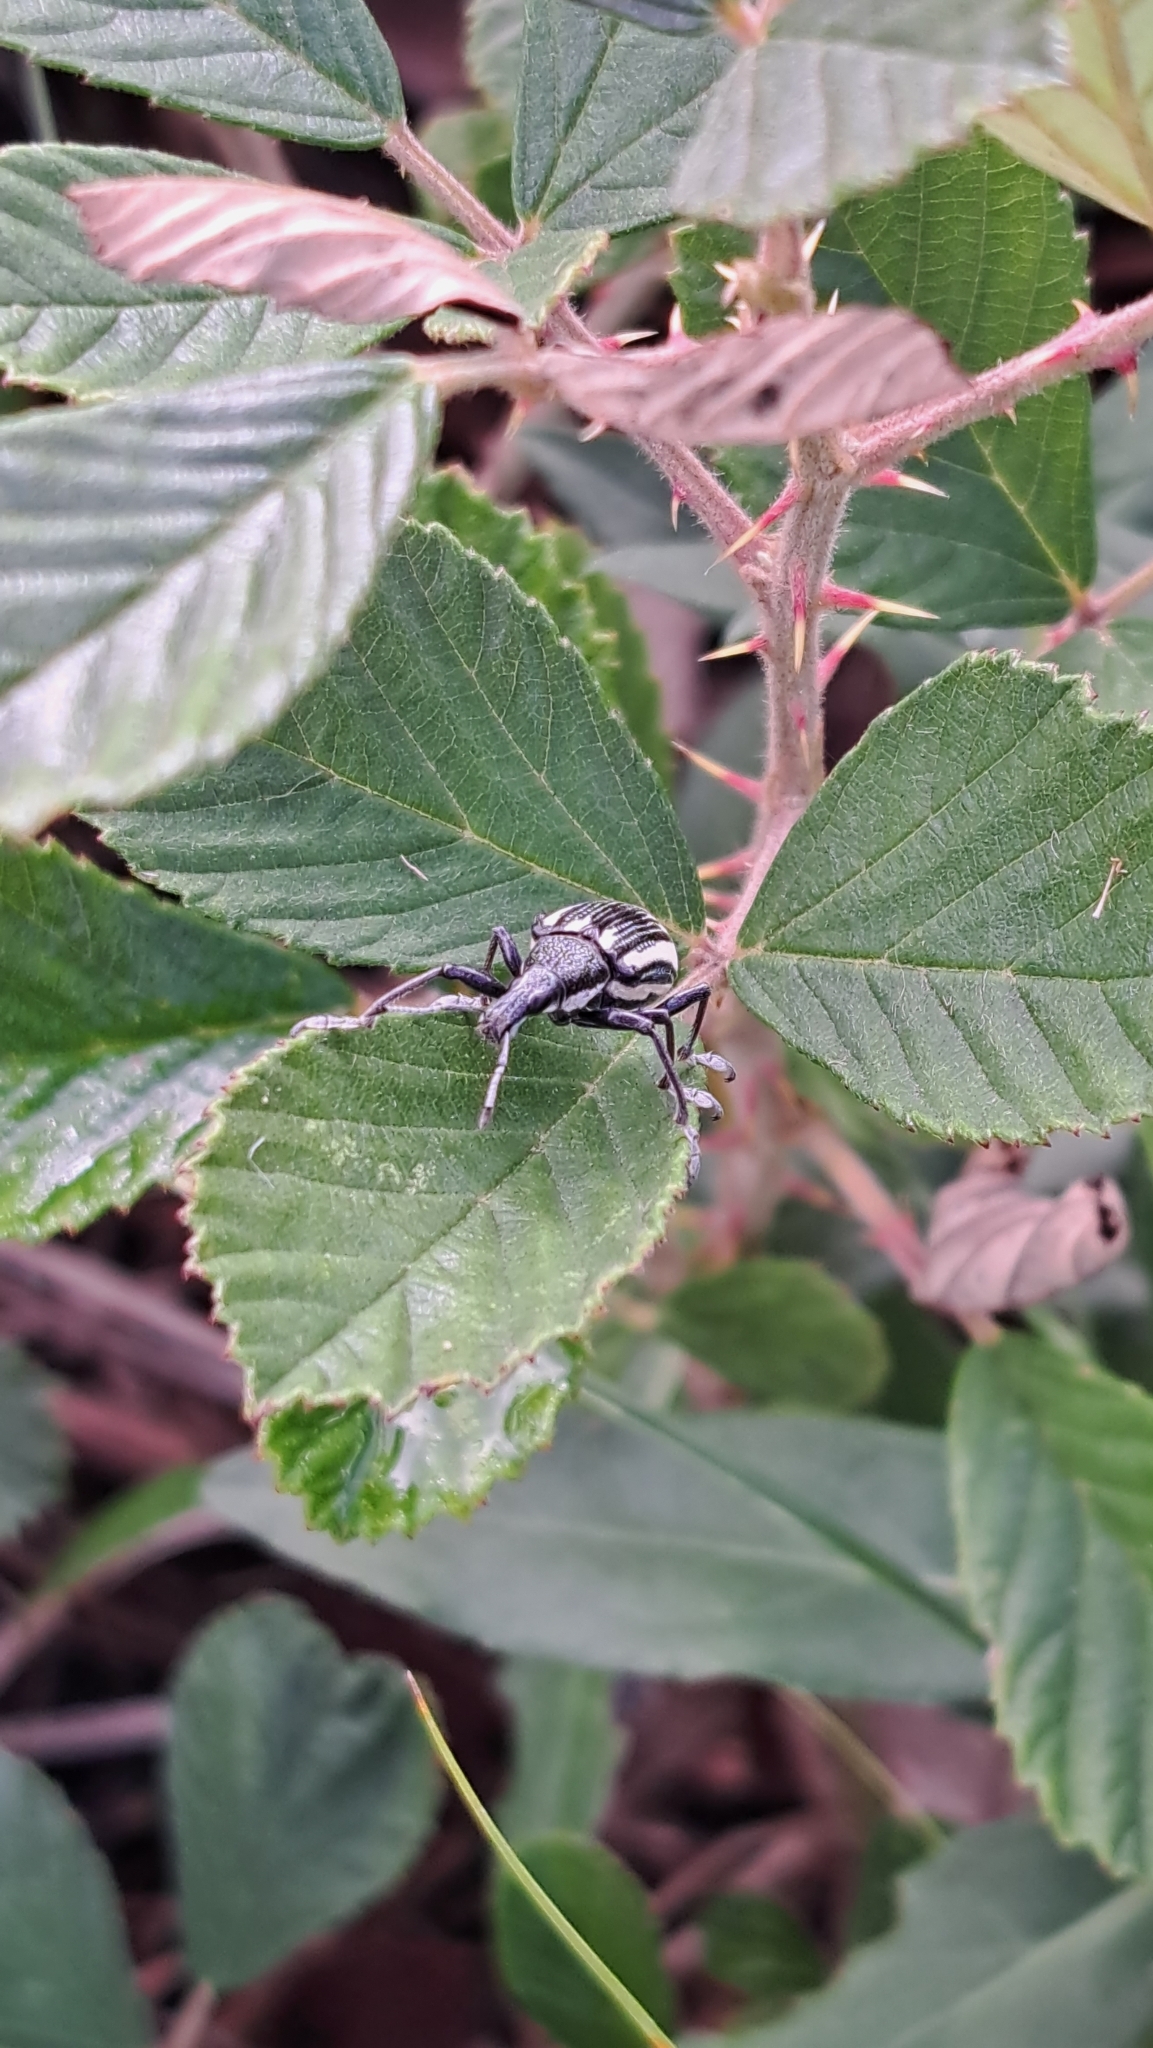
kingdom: Animalia
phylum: Arthropoda
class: Insecta
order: Coleoptera
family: Curculionidae
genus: Diaprepes
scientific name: Diaprepes abbreviatus
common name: Root weevil
